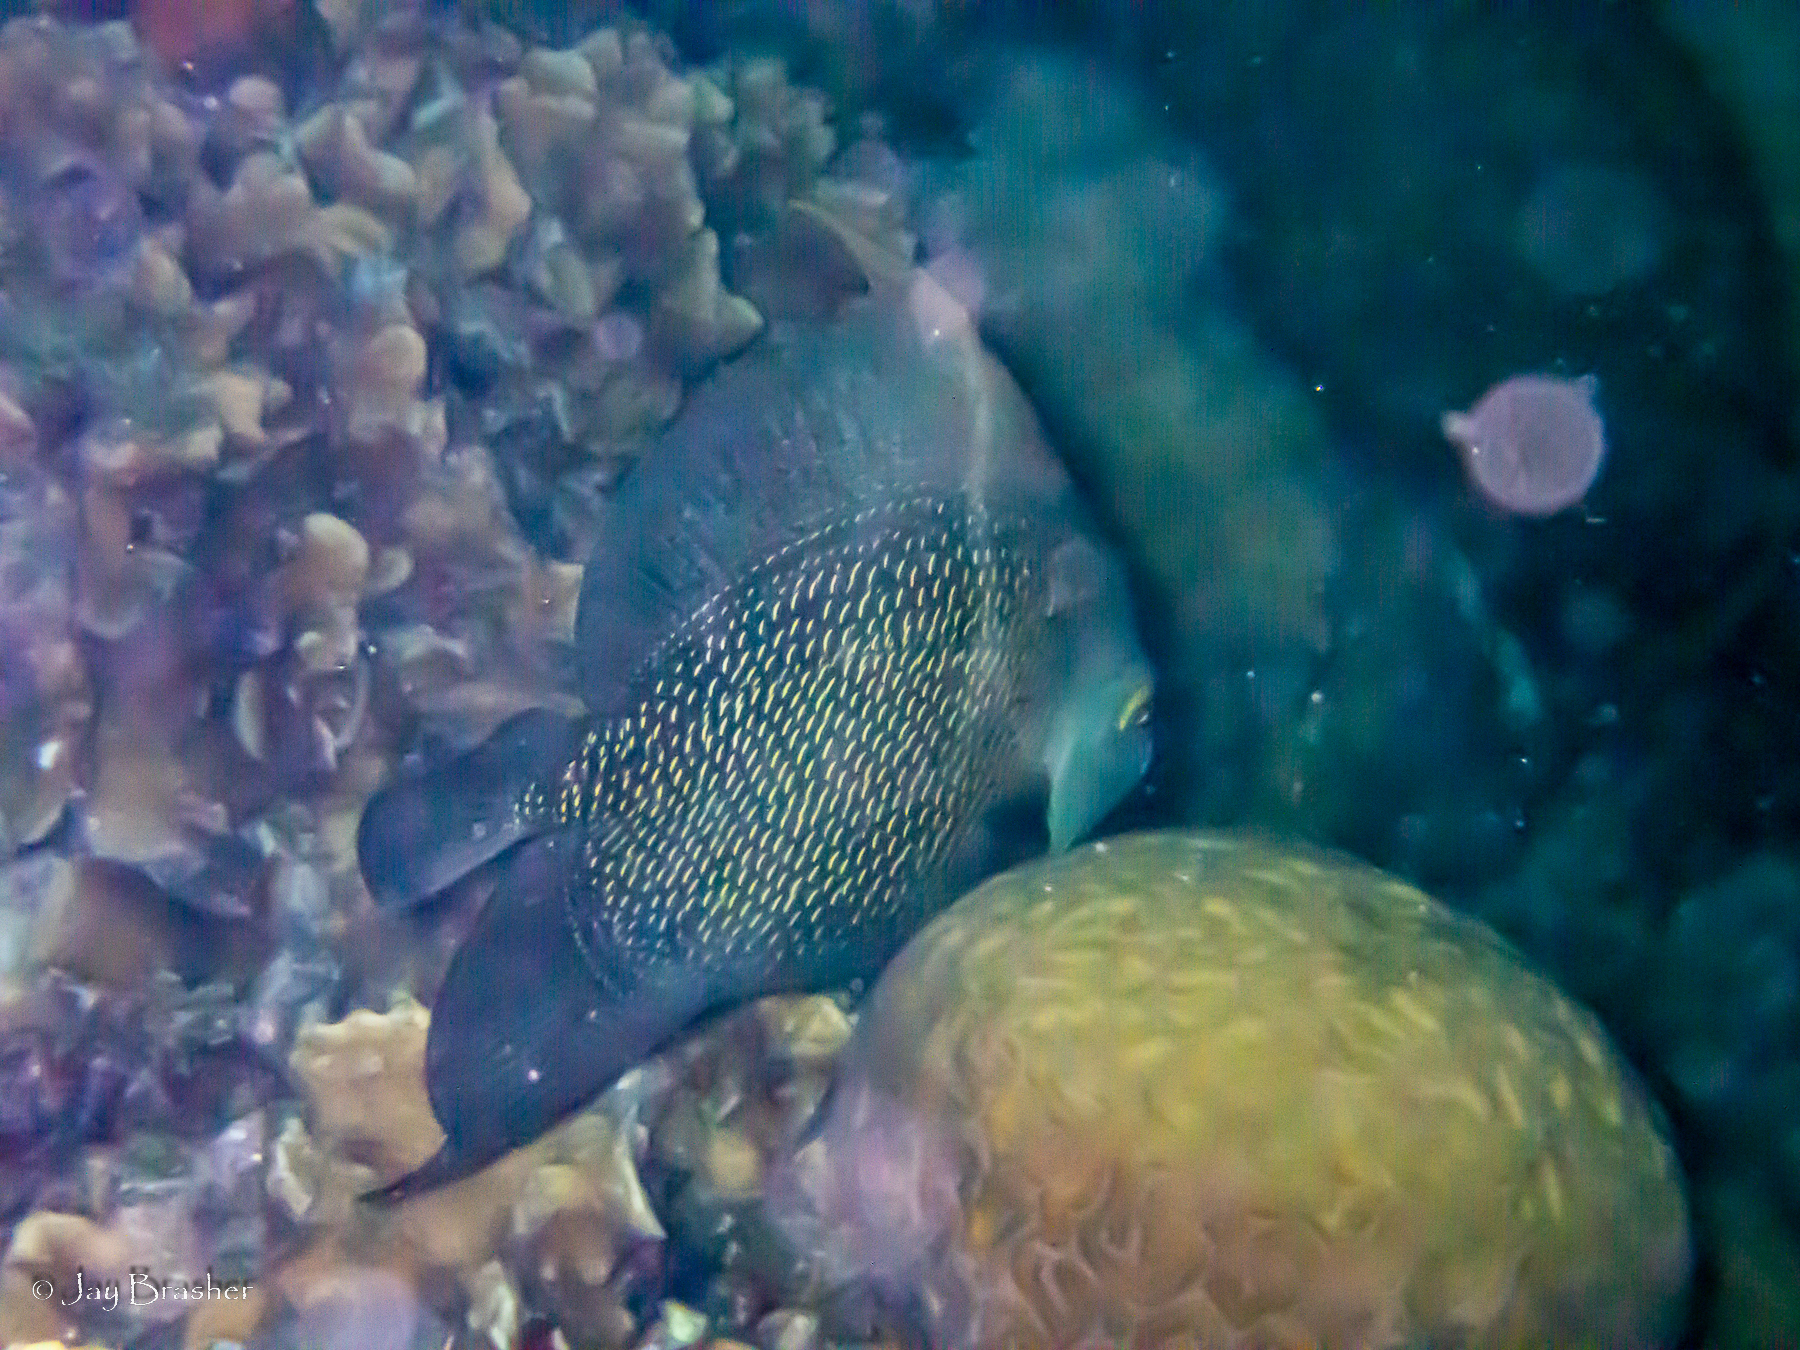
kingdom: Animalia
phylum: Chordata
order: Perciformes
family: Pomacanthidae
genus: Pomacanthus
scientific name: Pomacanthus paru
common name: French angelfish
